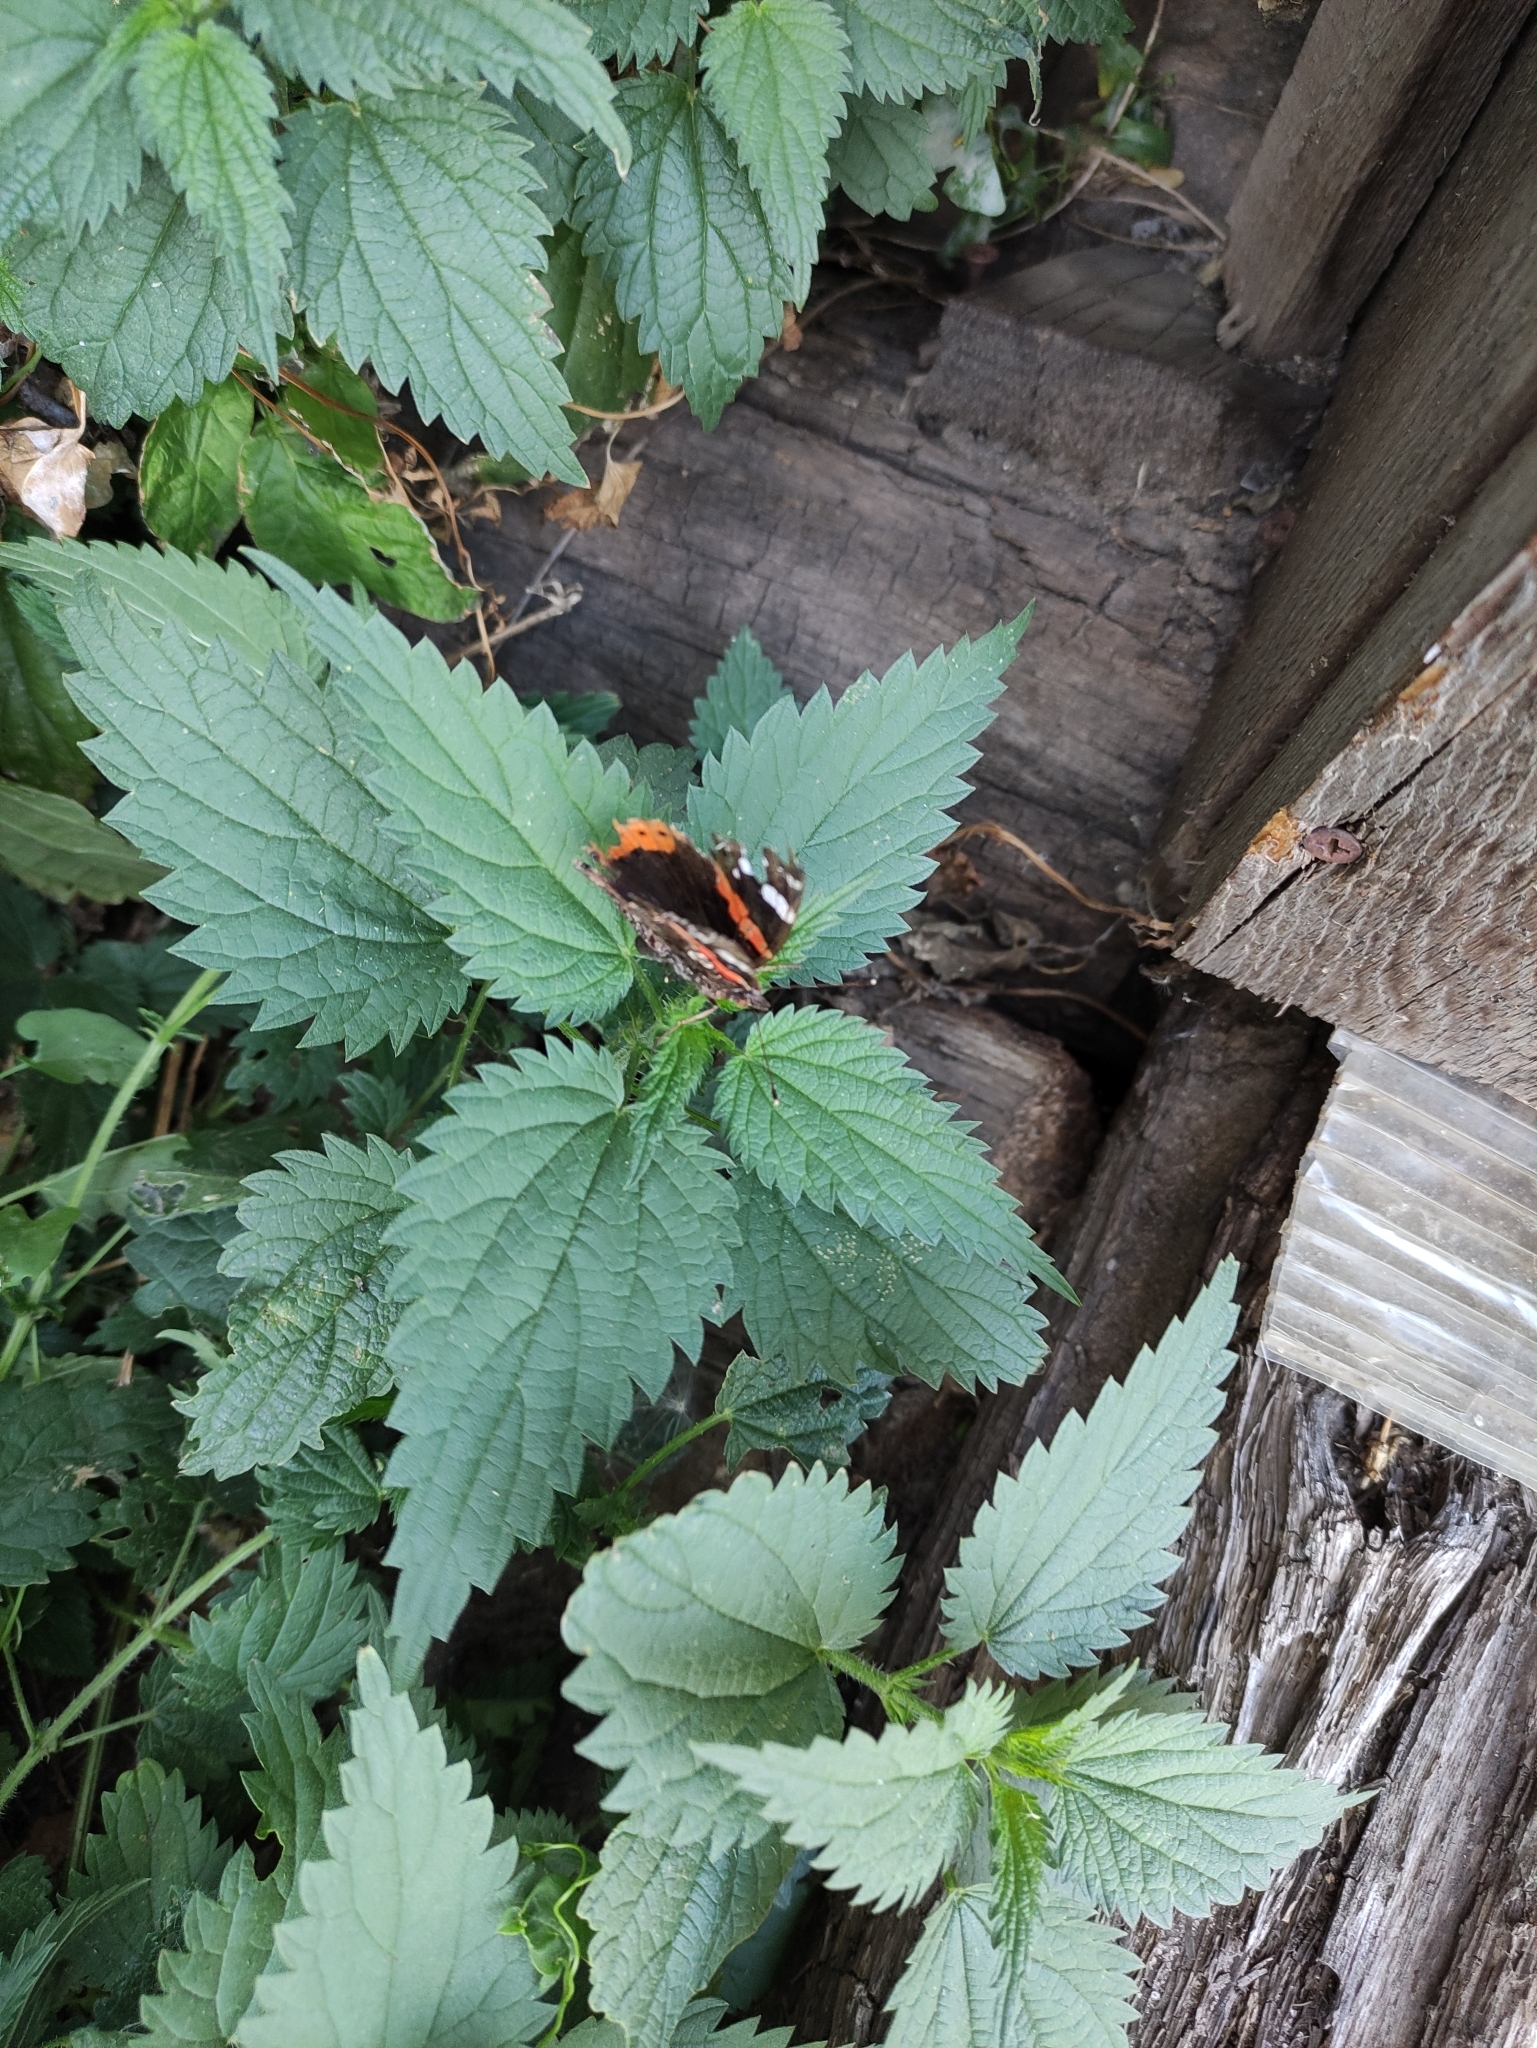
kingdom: Animalia
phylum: Arthropoda
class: Insecta
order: Lepidoptera
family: Nymphalidae
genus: Vanessa
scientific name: Vanessa atalanta
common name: Red admiral
